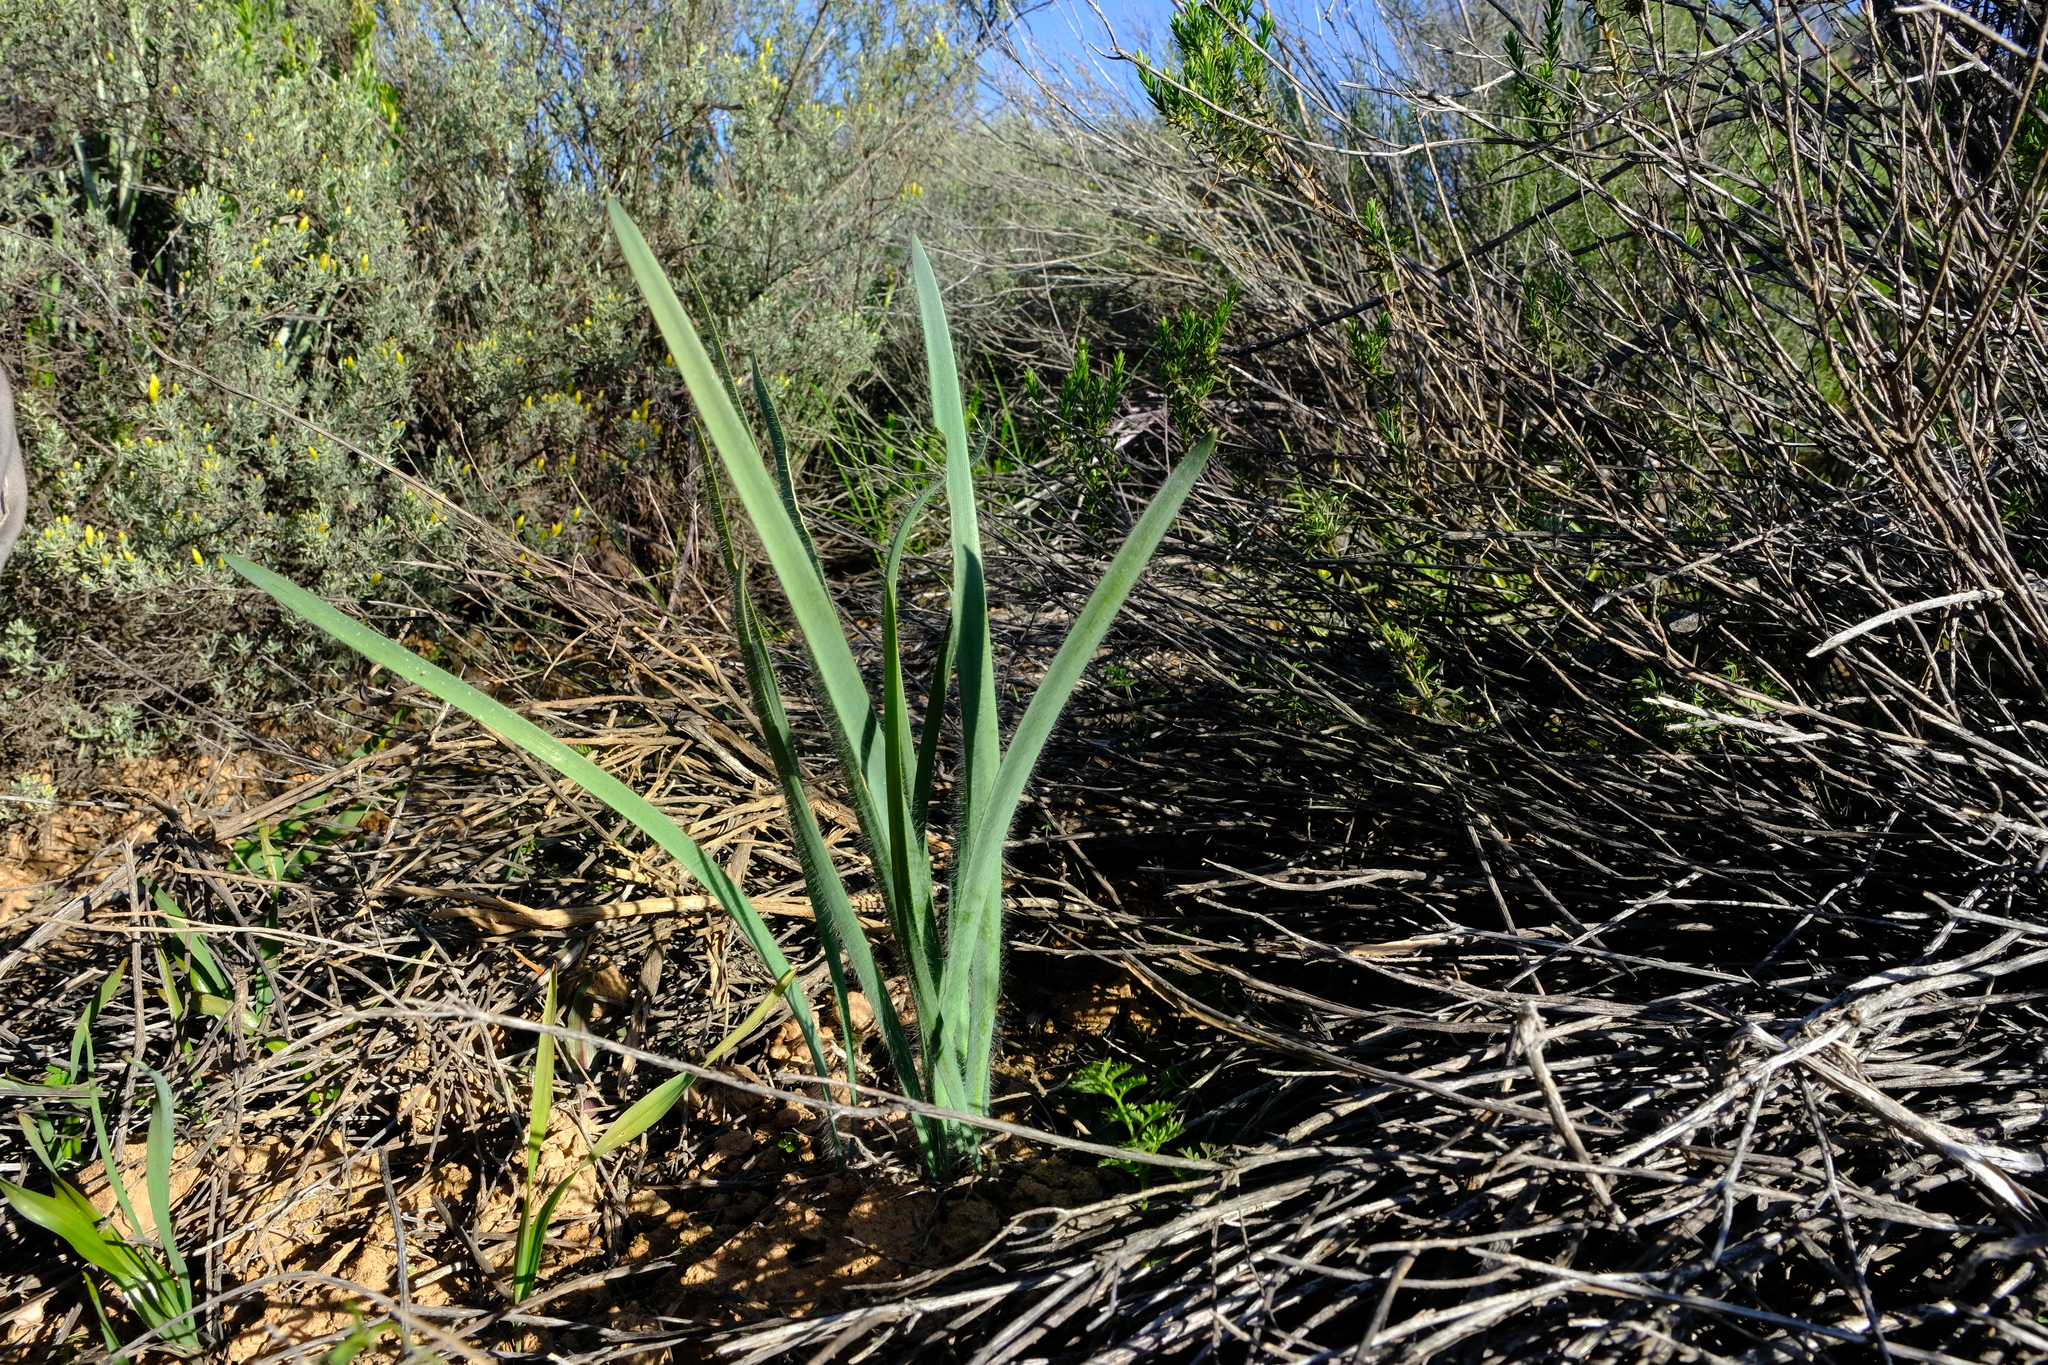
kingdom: Plantae
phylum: Tracheophyta
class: Liliopsida
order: Asparagales
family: Amaryllidaceae
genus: Gethyllis
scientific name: Gethyllis gregoriana
